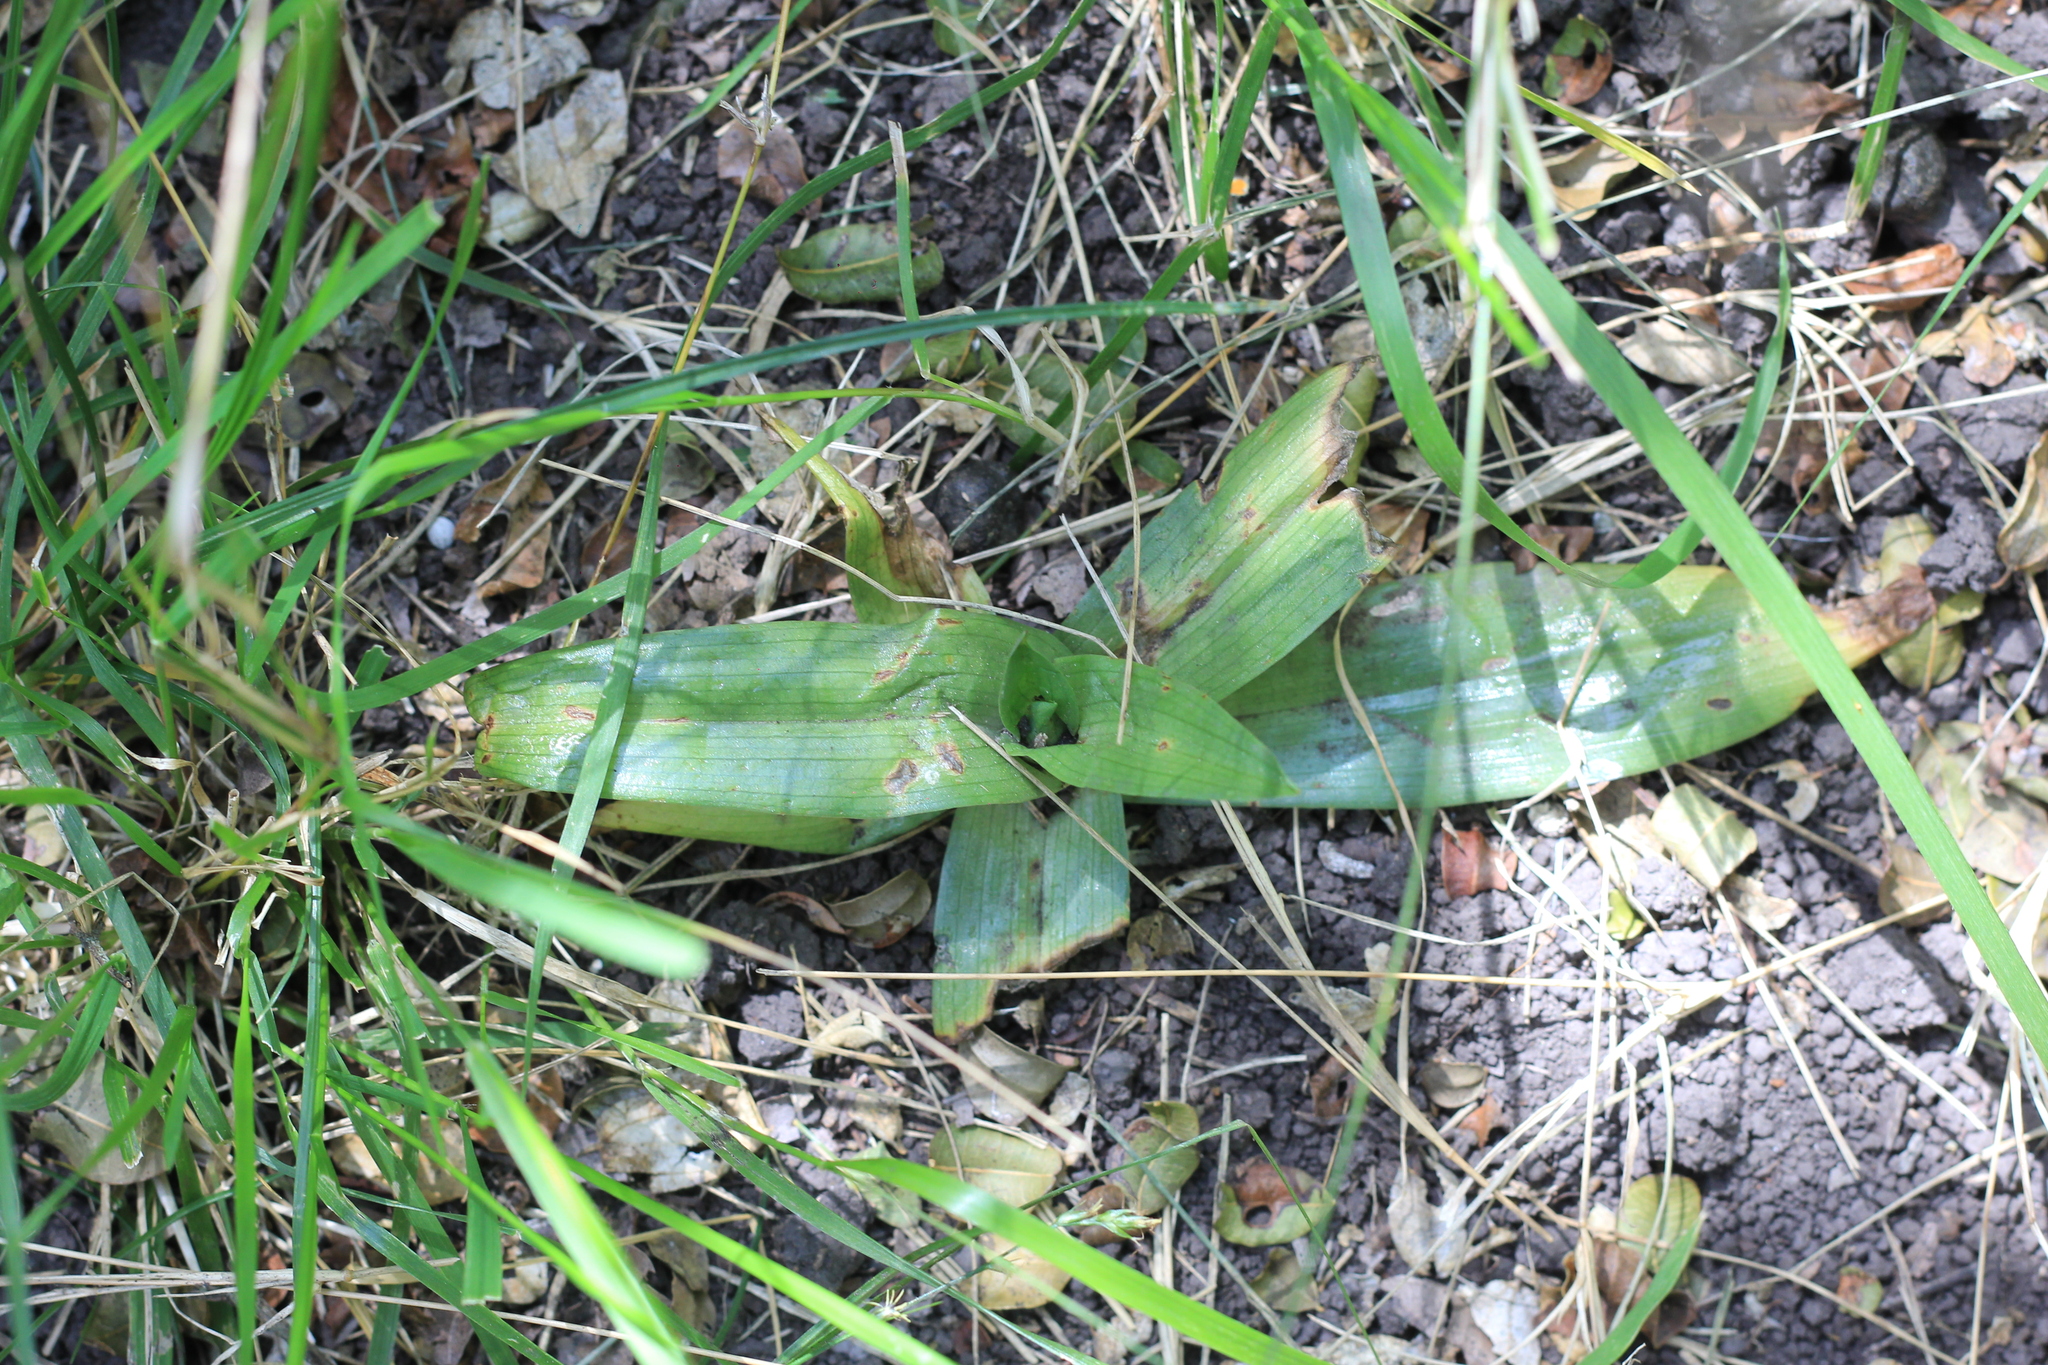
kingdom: Plantae
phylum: Tracheophyta
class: Liliopsida
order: Asparagales
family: Orchidaceae
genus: Chloraea
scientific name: Chloraea membranacea
